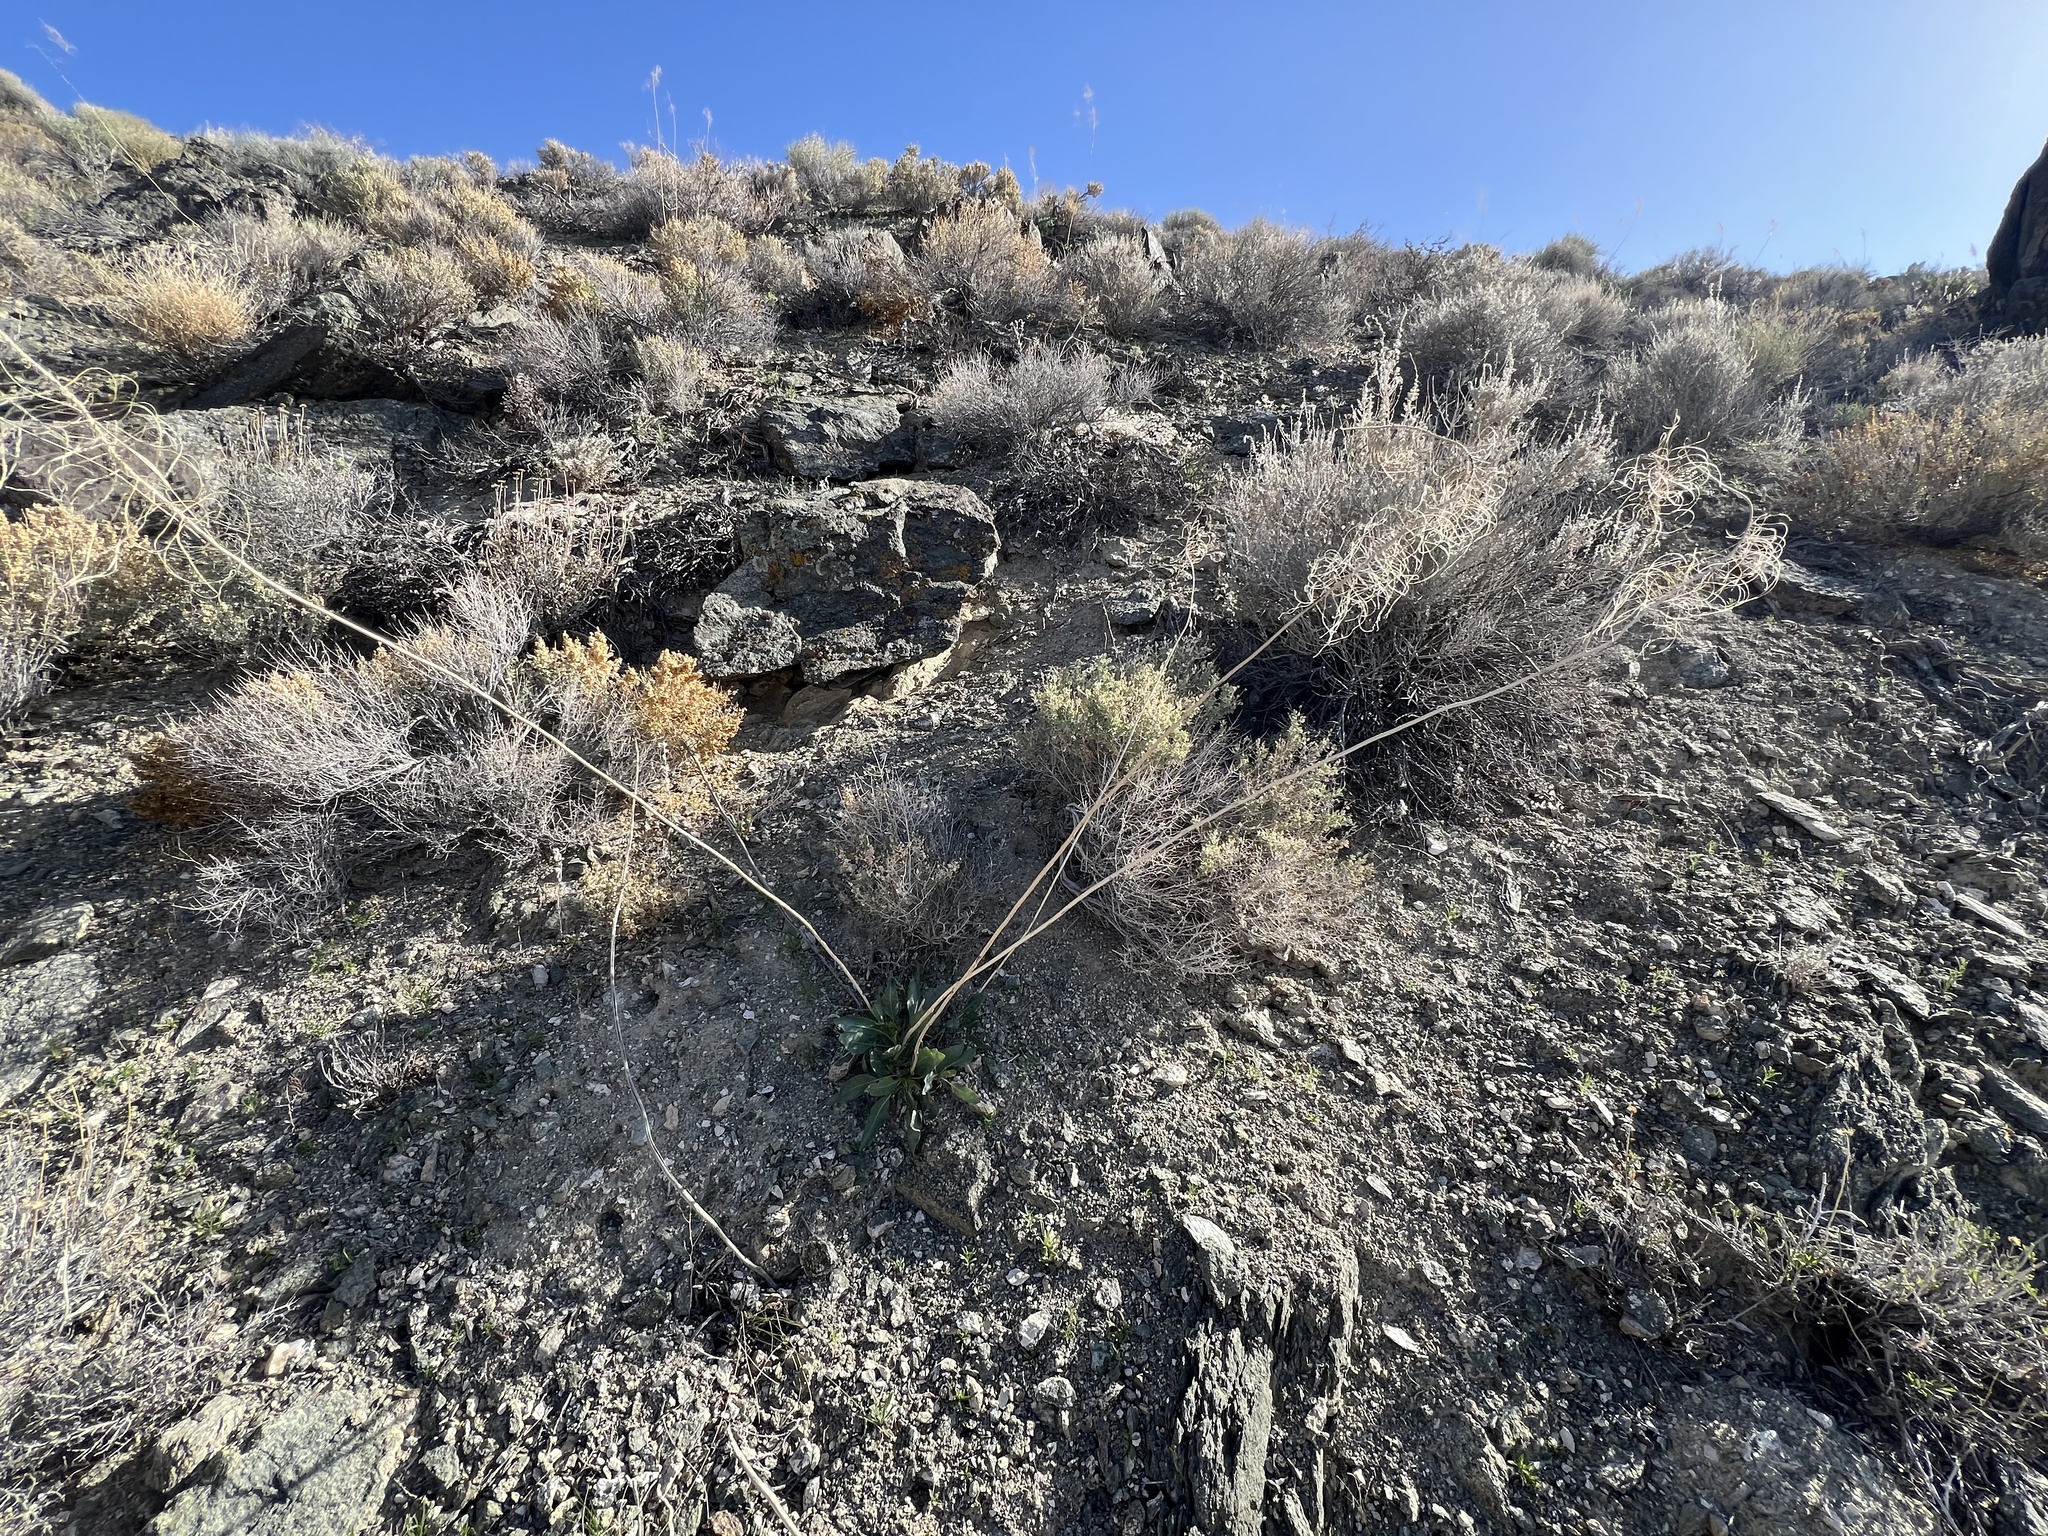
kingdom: Plantae
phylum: Tracheophyta
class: Magnoliopsida
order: Brassicales
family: Brassicaceae
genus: Stanleya
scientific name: Stanleya elata
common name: Panamint prince's plume
